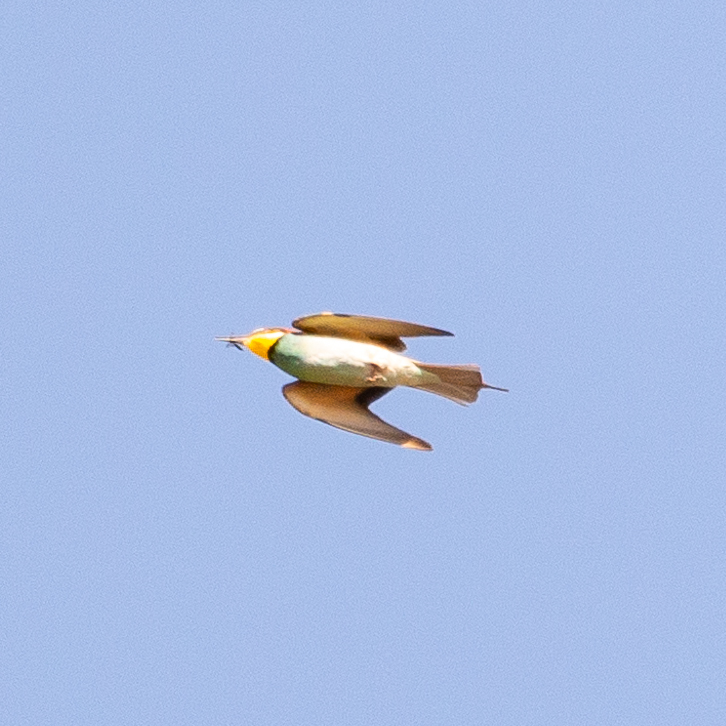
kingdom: Animalia
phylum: Chordata
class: Aves
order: Coraciiformes
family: Meropidae
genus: Merops
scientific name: Merops apiaster
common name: European bee-eater
